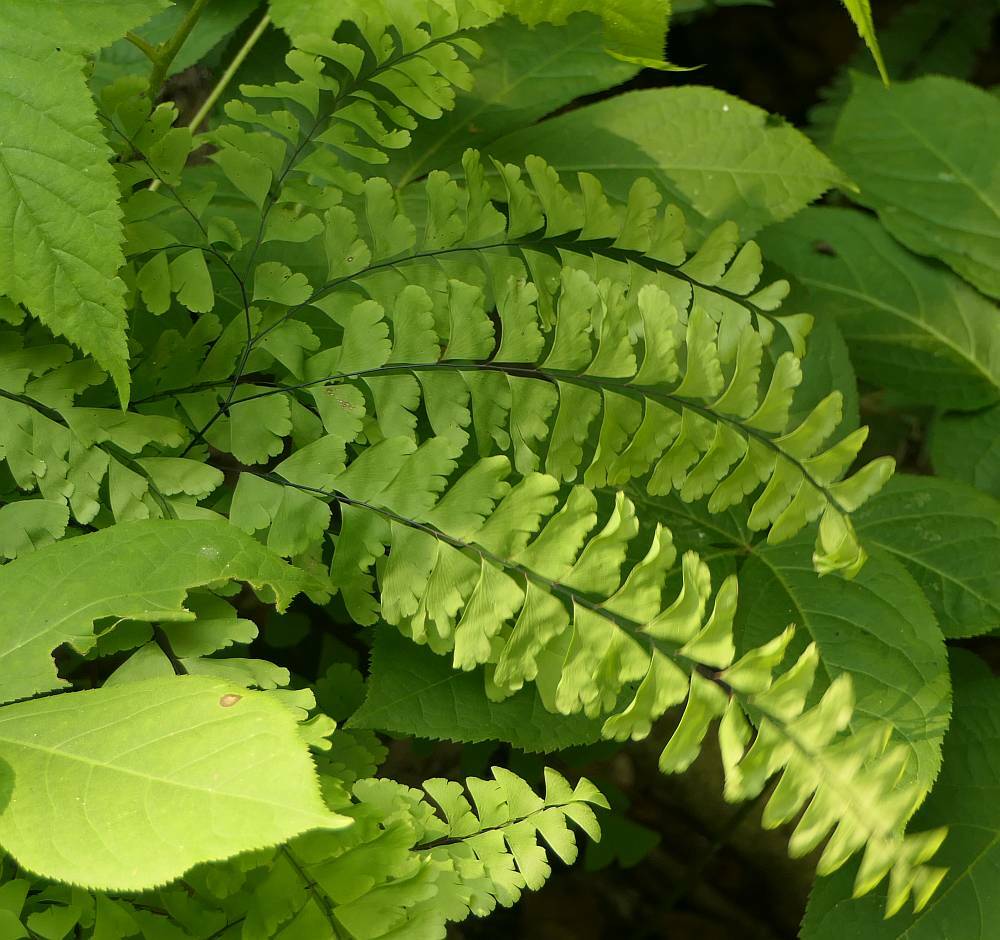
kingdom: Plantae
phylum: Tracheophyta
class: Polypodiopsida
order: Polypodiales
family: Pteridaceae
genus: Adiantum
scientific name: Adiantum pedatum
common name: Five-finger fern
